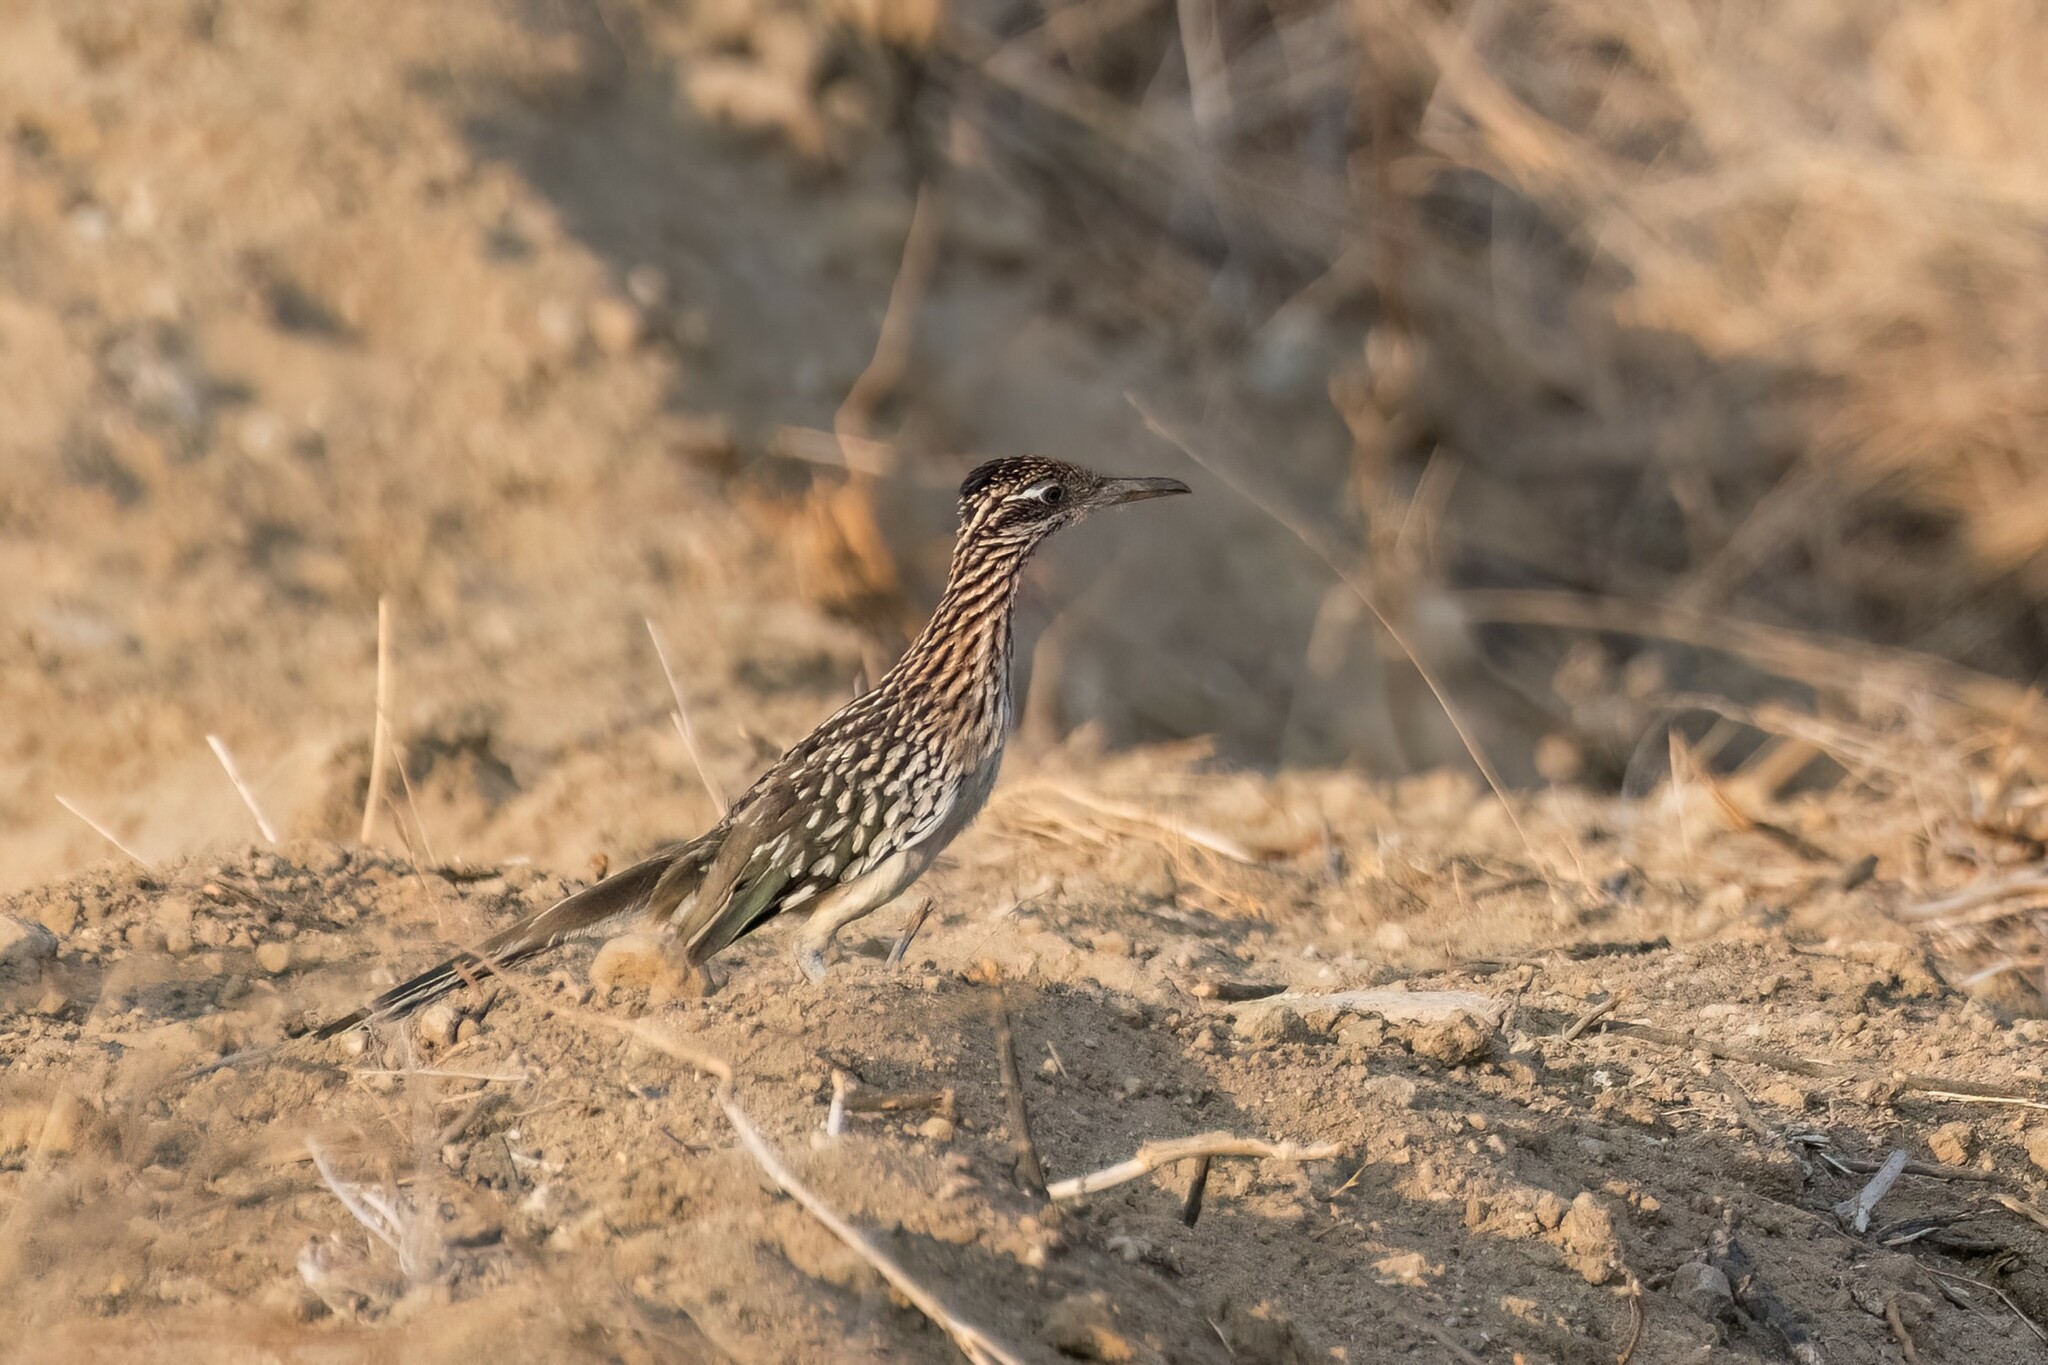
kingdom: Animalia
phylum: Chordata
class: Aves
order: Cuculiformes
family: Cuculidae
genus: Geococcyx
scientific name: Geococcyx californianus
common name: Greater roadrunner
